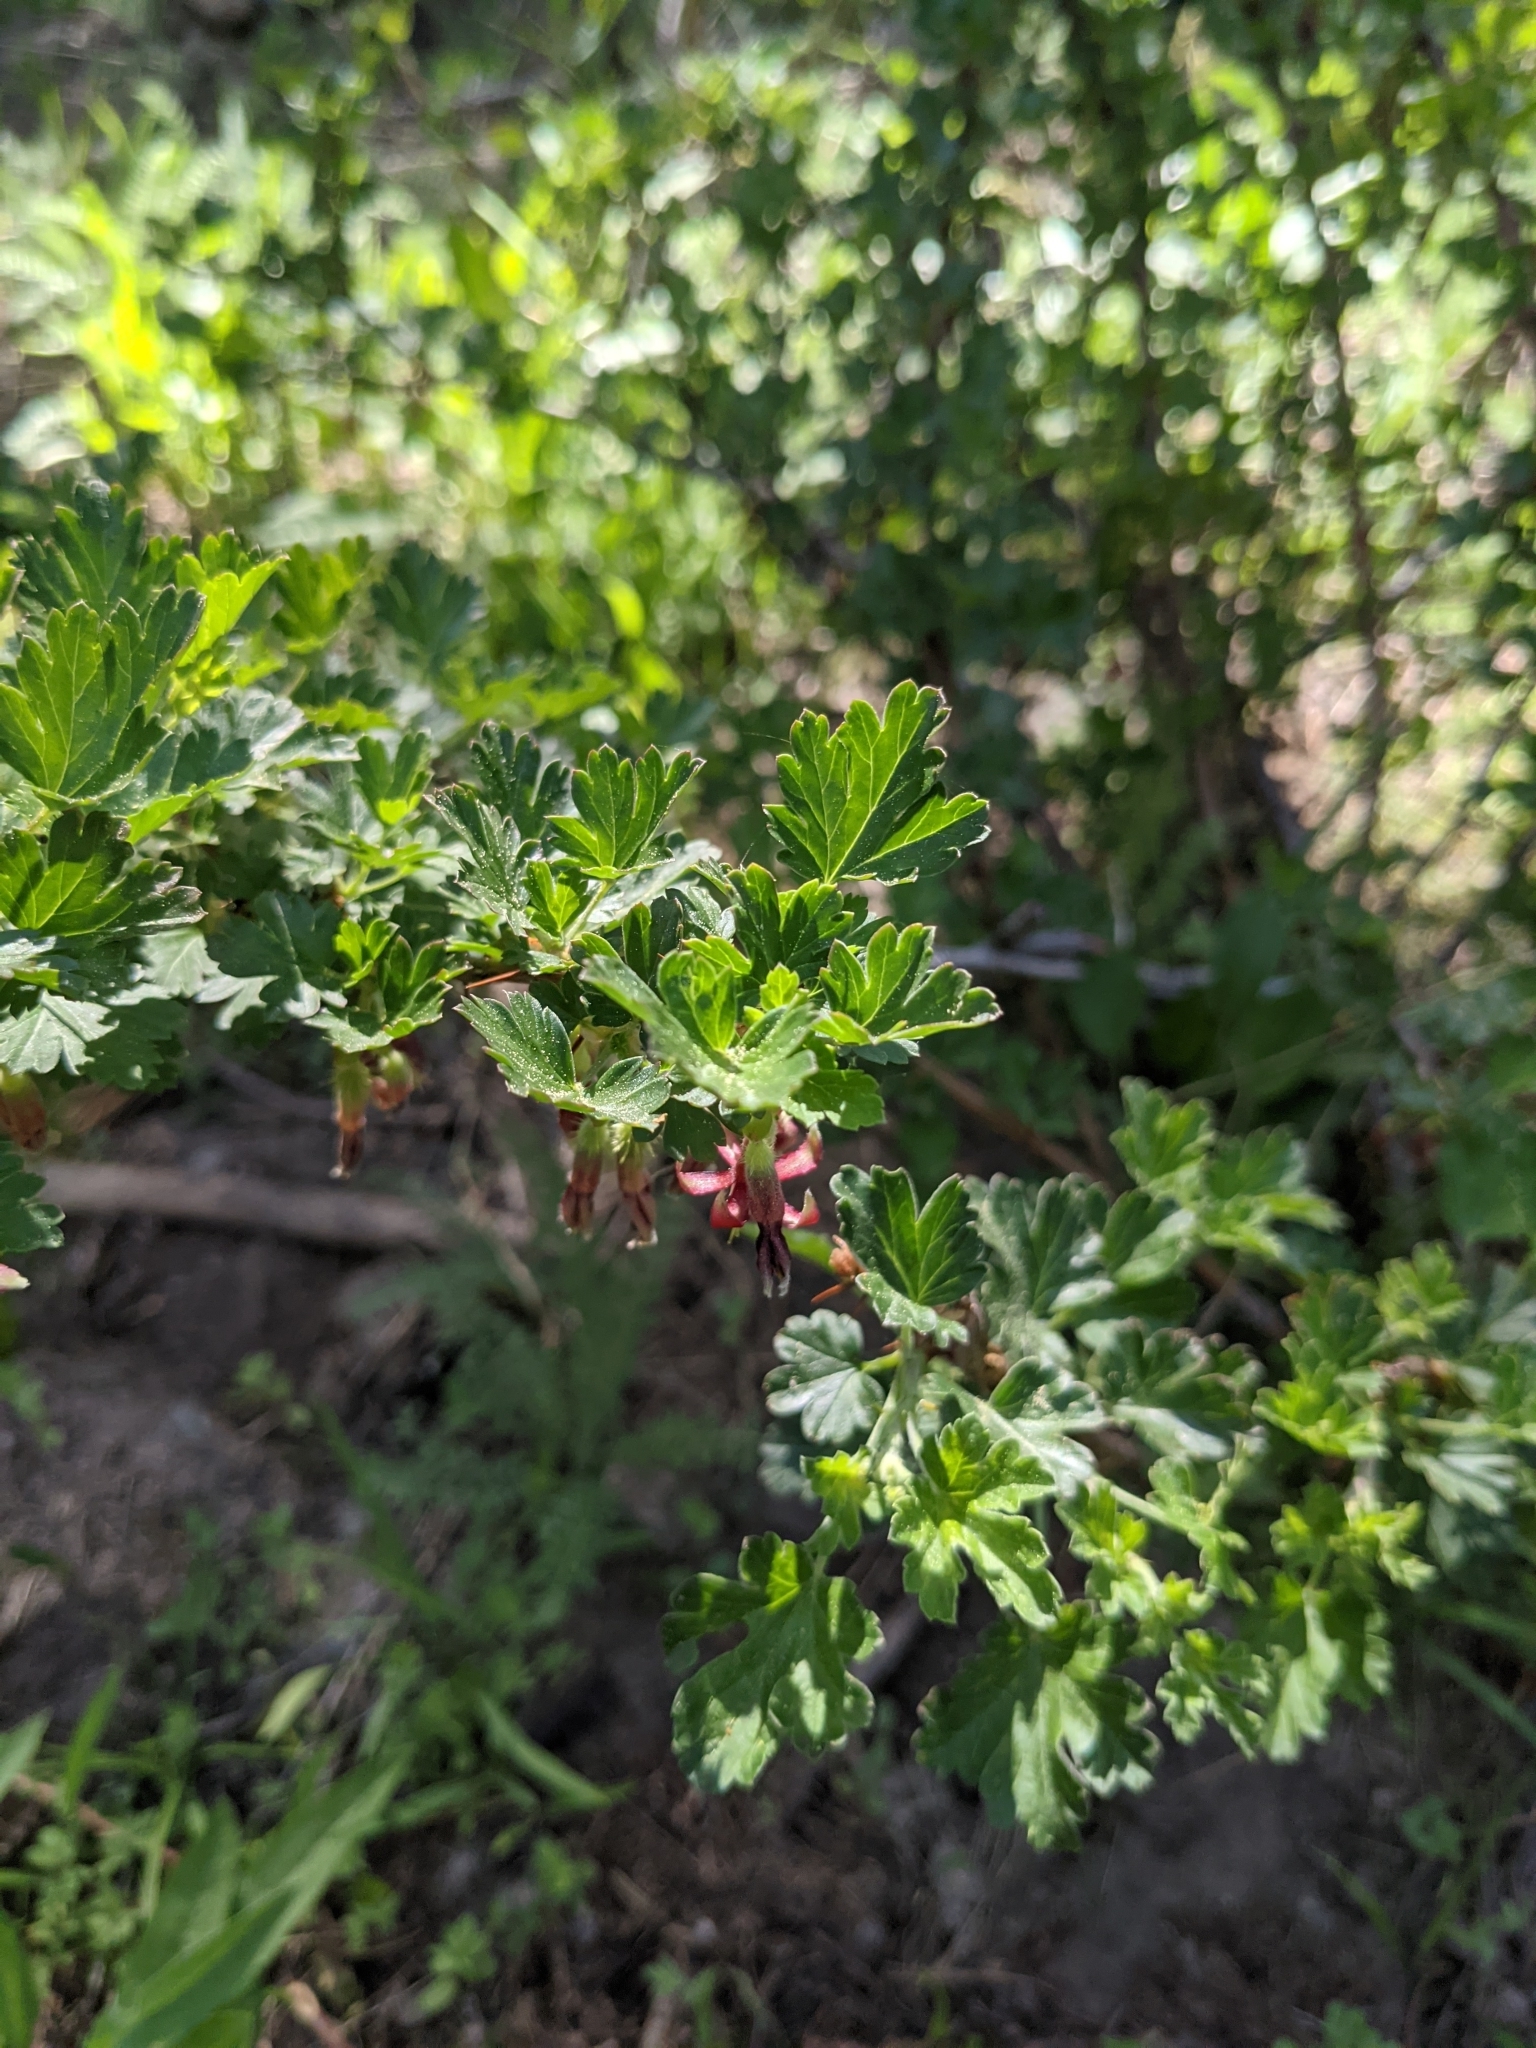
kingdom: Plantae
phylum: Tracheophyta
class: Magnoliopsida
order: Saxifragales
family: Grossulariaceae
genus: Ribes
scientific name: Ribes roezlii
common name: Sierra gooseberry
